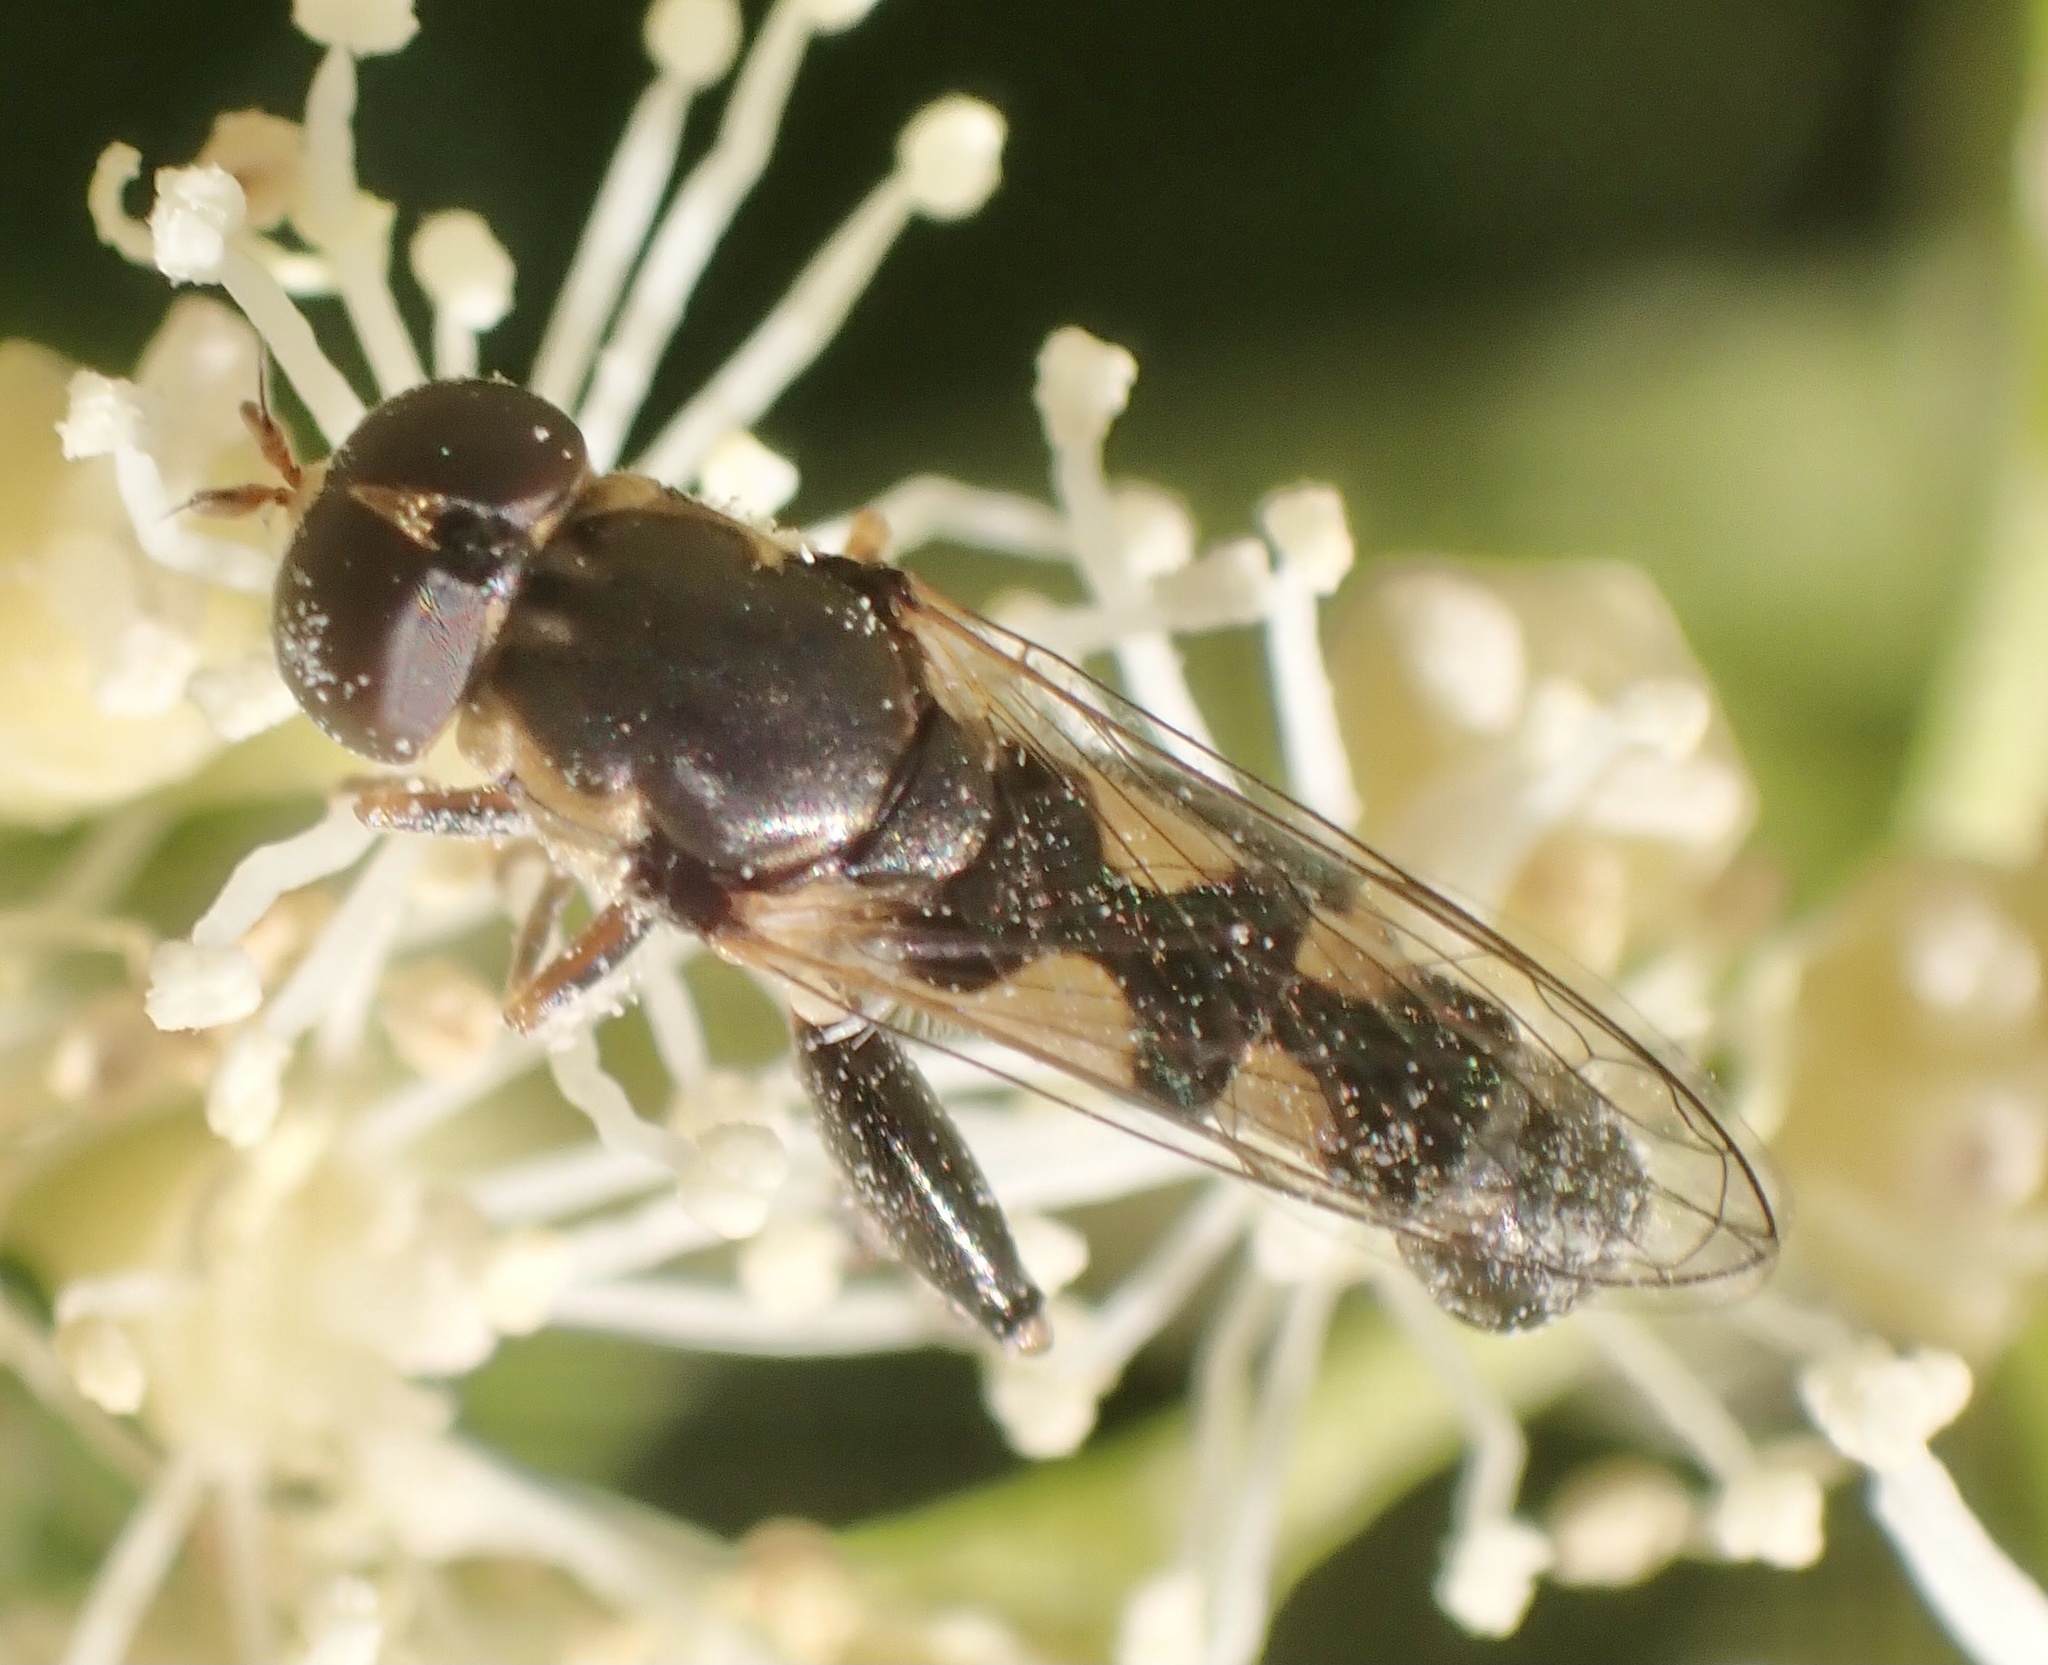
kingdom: Animalia
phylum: Arthropoda
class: Insecta
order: Diptera
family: Syrphidae
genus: Syritta
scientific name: Syritta pipiens
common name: Hover fly
